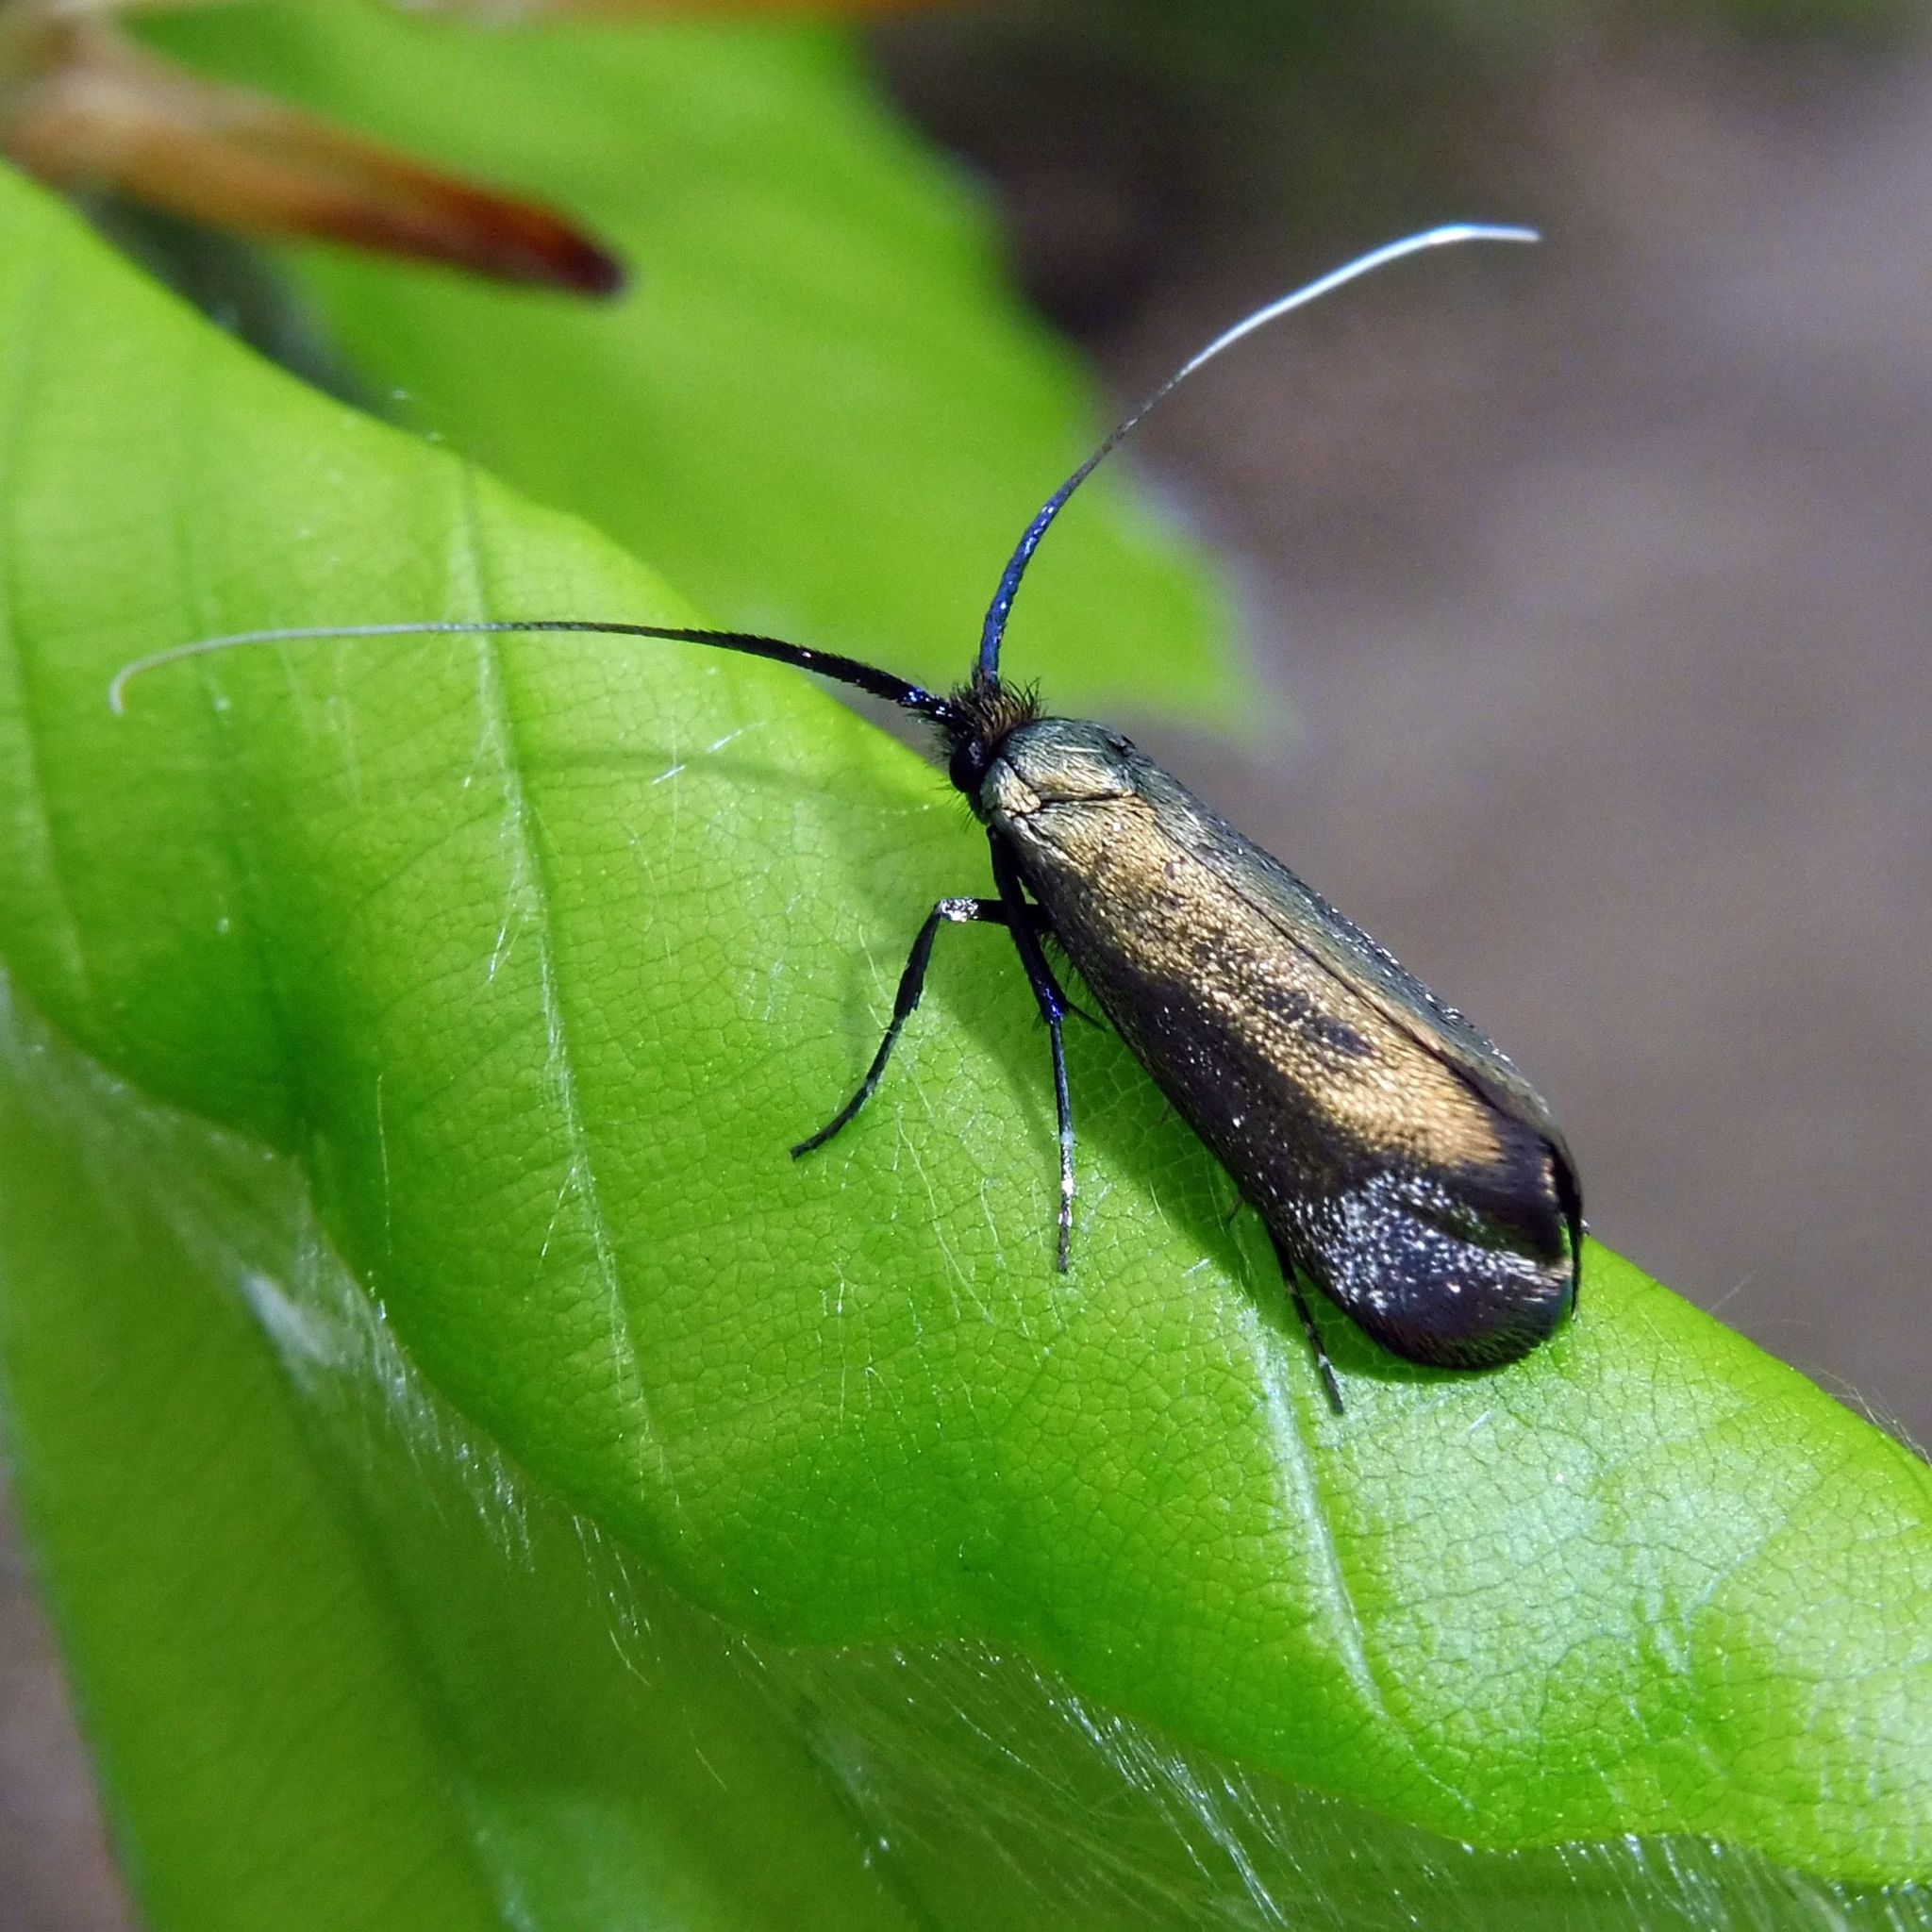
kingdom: Animalia
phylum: Arthropoda
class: Insecta
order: Lepidoptera
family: Adelidae
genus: Adela
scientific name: Adela viridella
